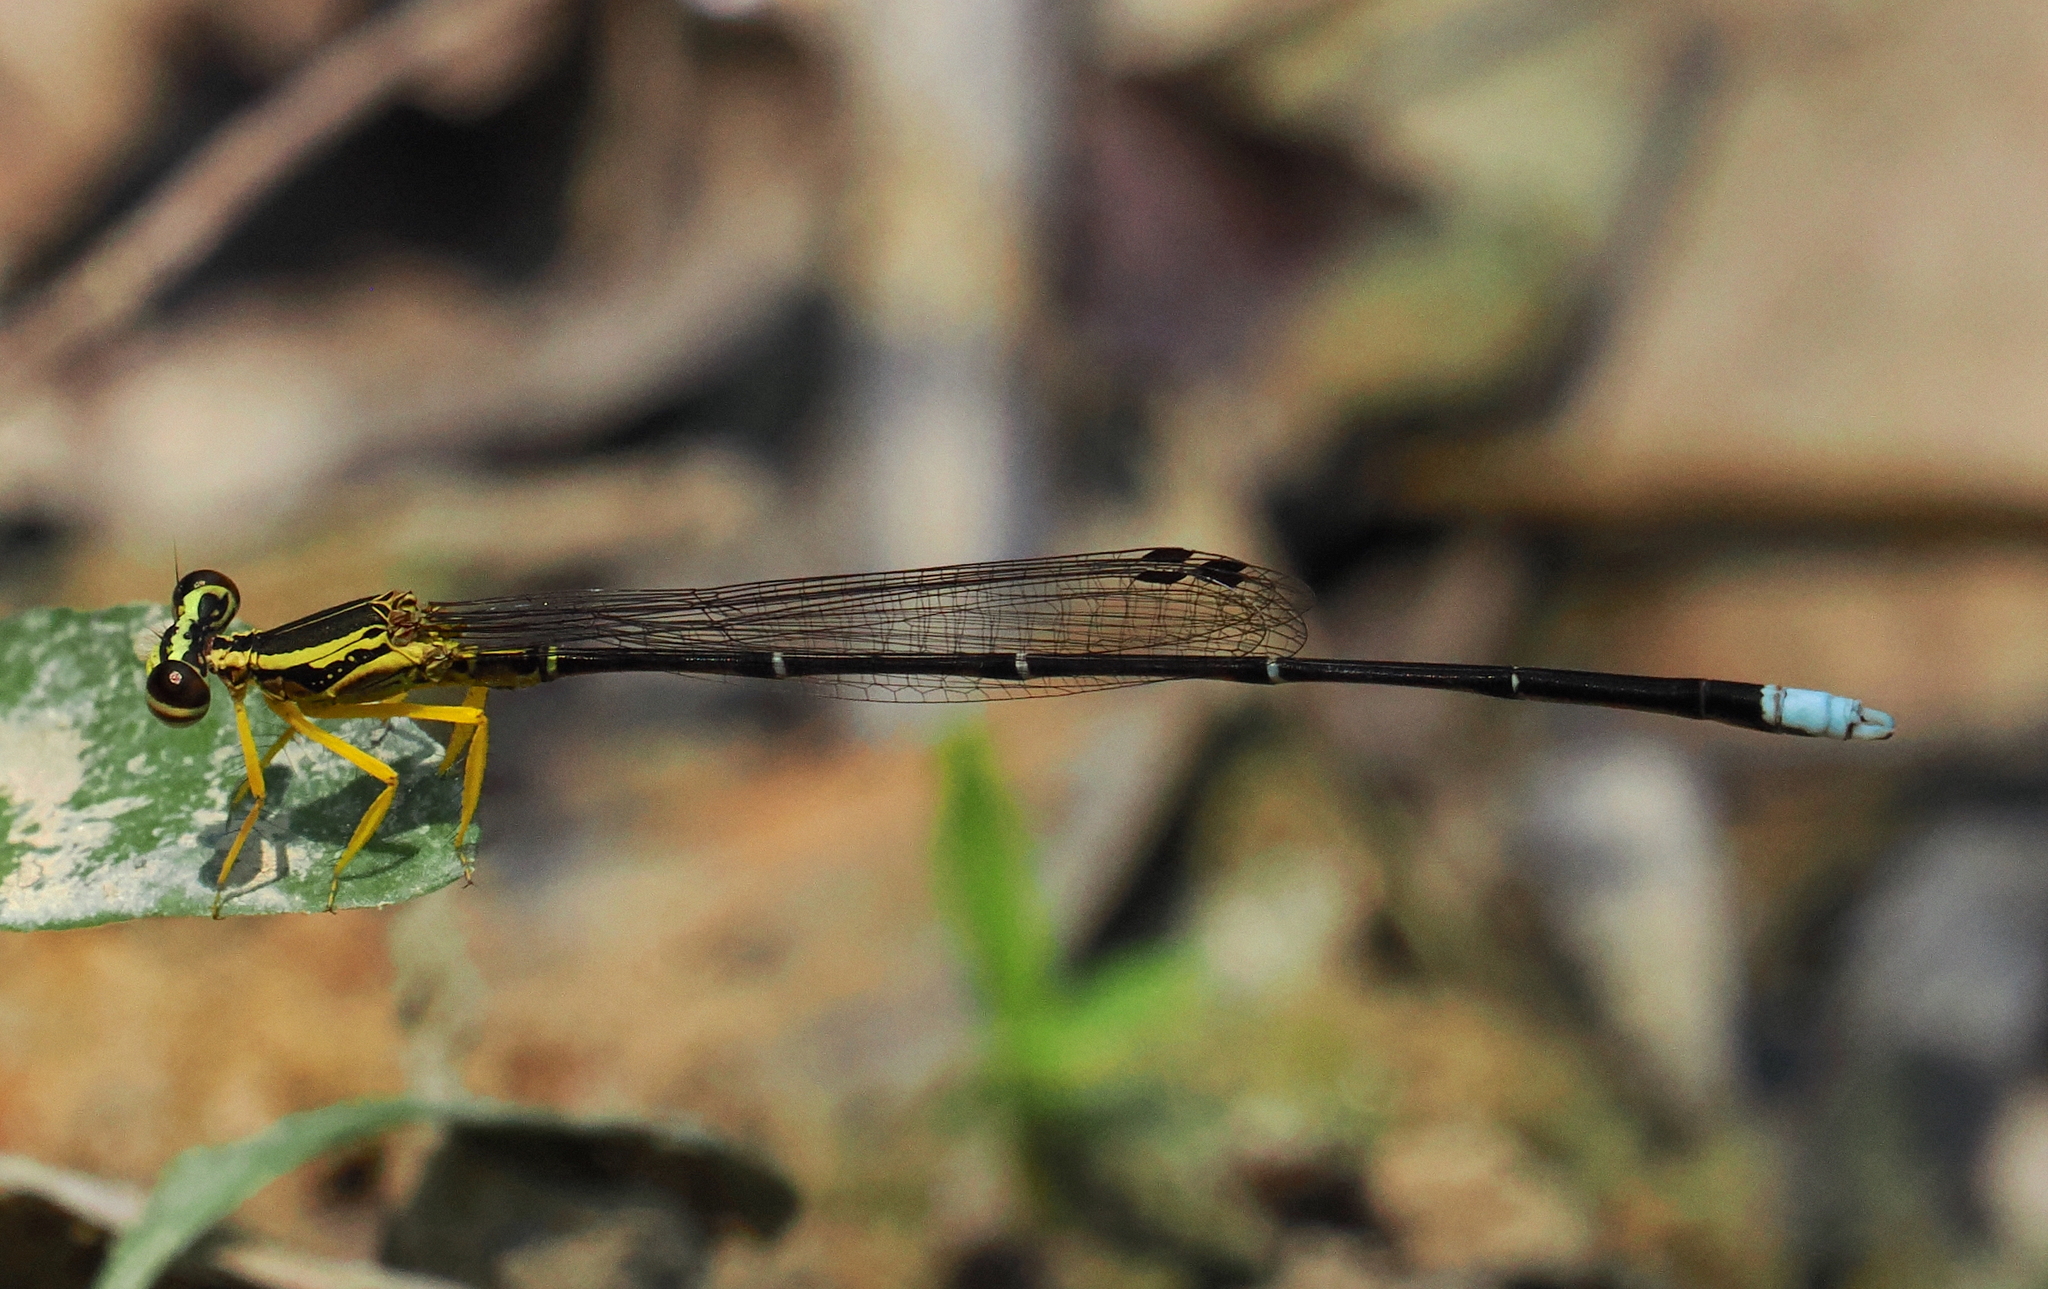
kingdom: Animalia
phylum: Arthropoda
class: Insecta
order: Odonata
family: Platycnemididae
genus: Copera
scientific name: Copera marginipes
